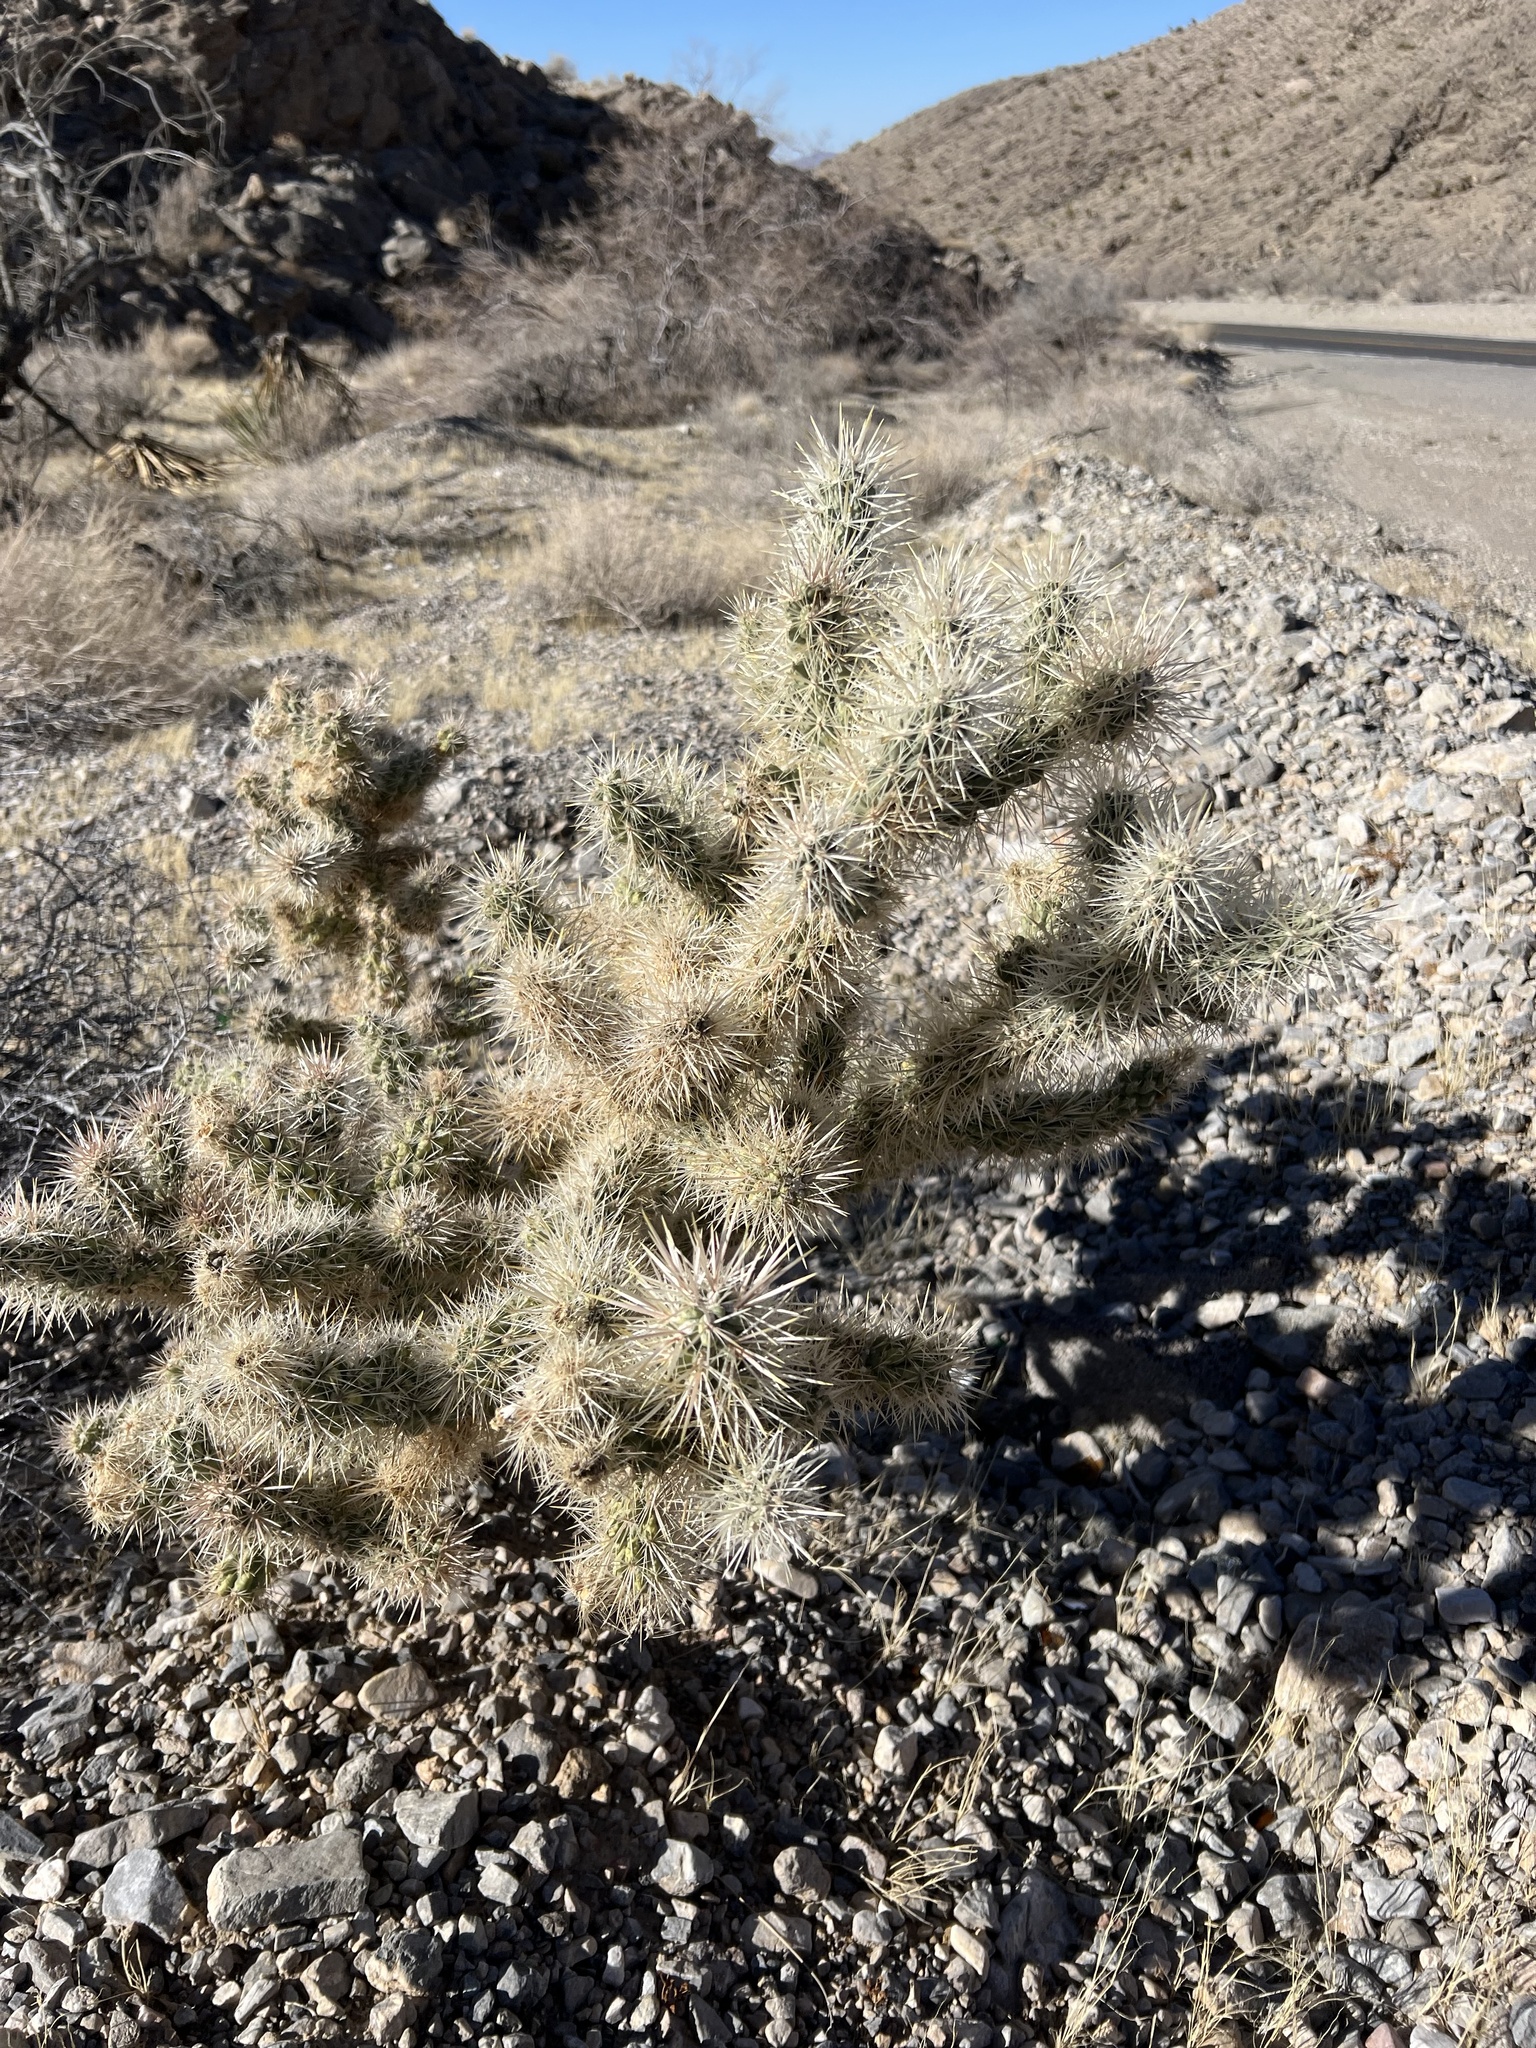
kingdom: Plantae
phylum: Tracheophyta
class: Magnoliopsida
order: Caryophyllales
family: Cactaceae
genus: Cylindropuntia
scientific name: Cylindropuntia echinocarpa
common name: Ground cholla
